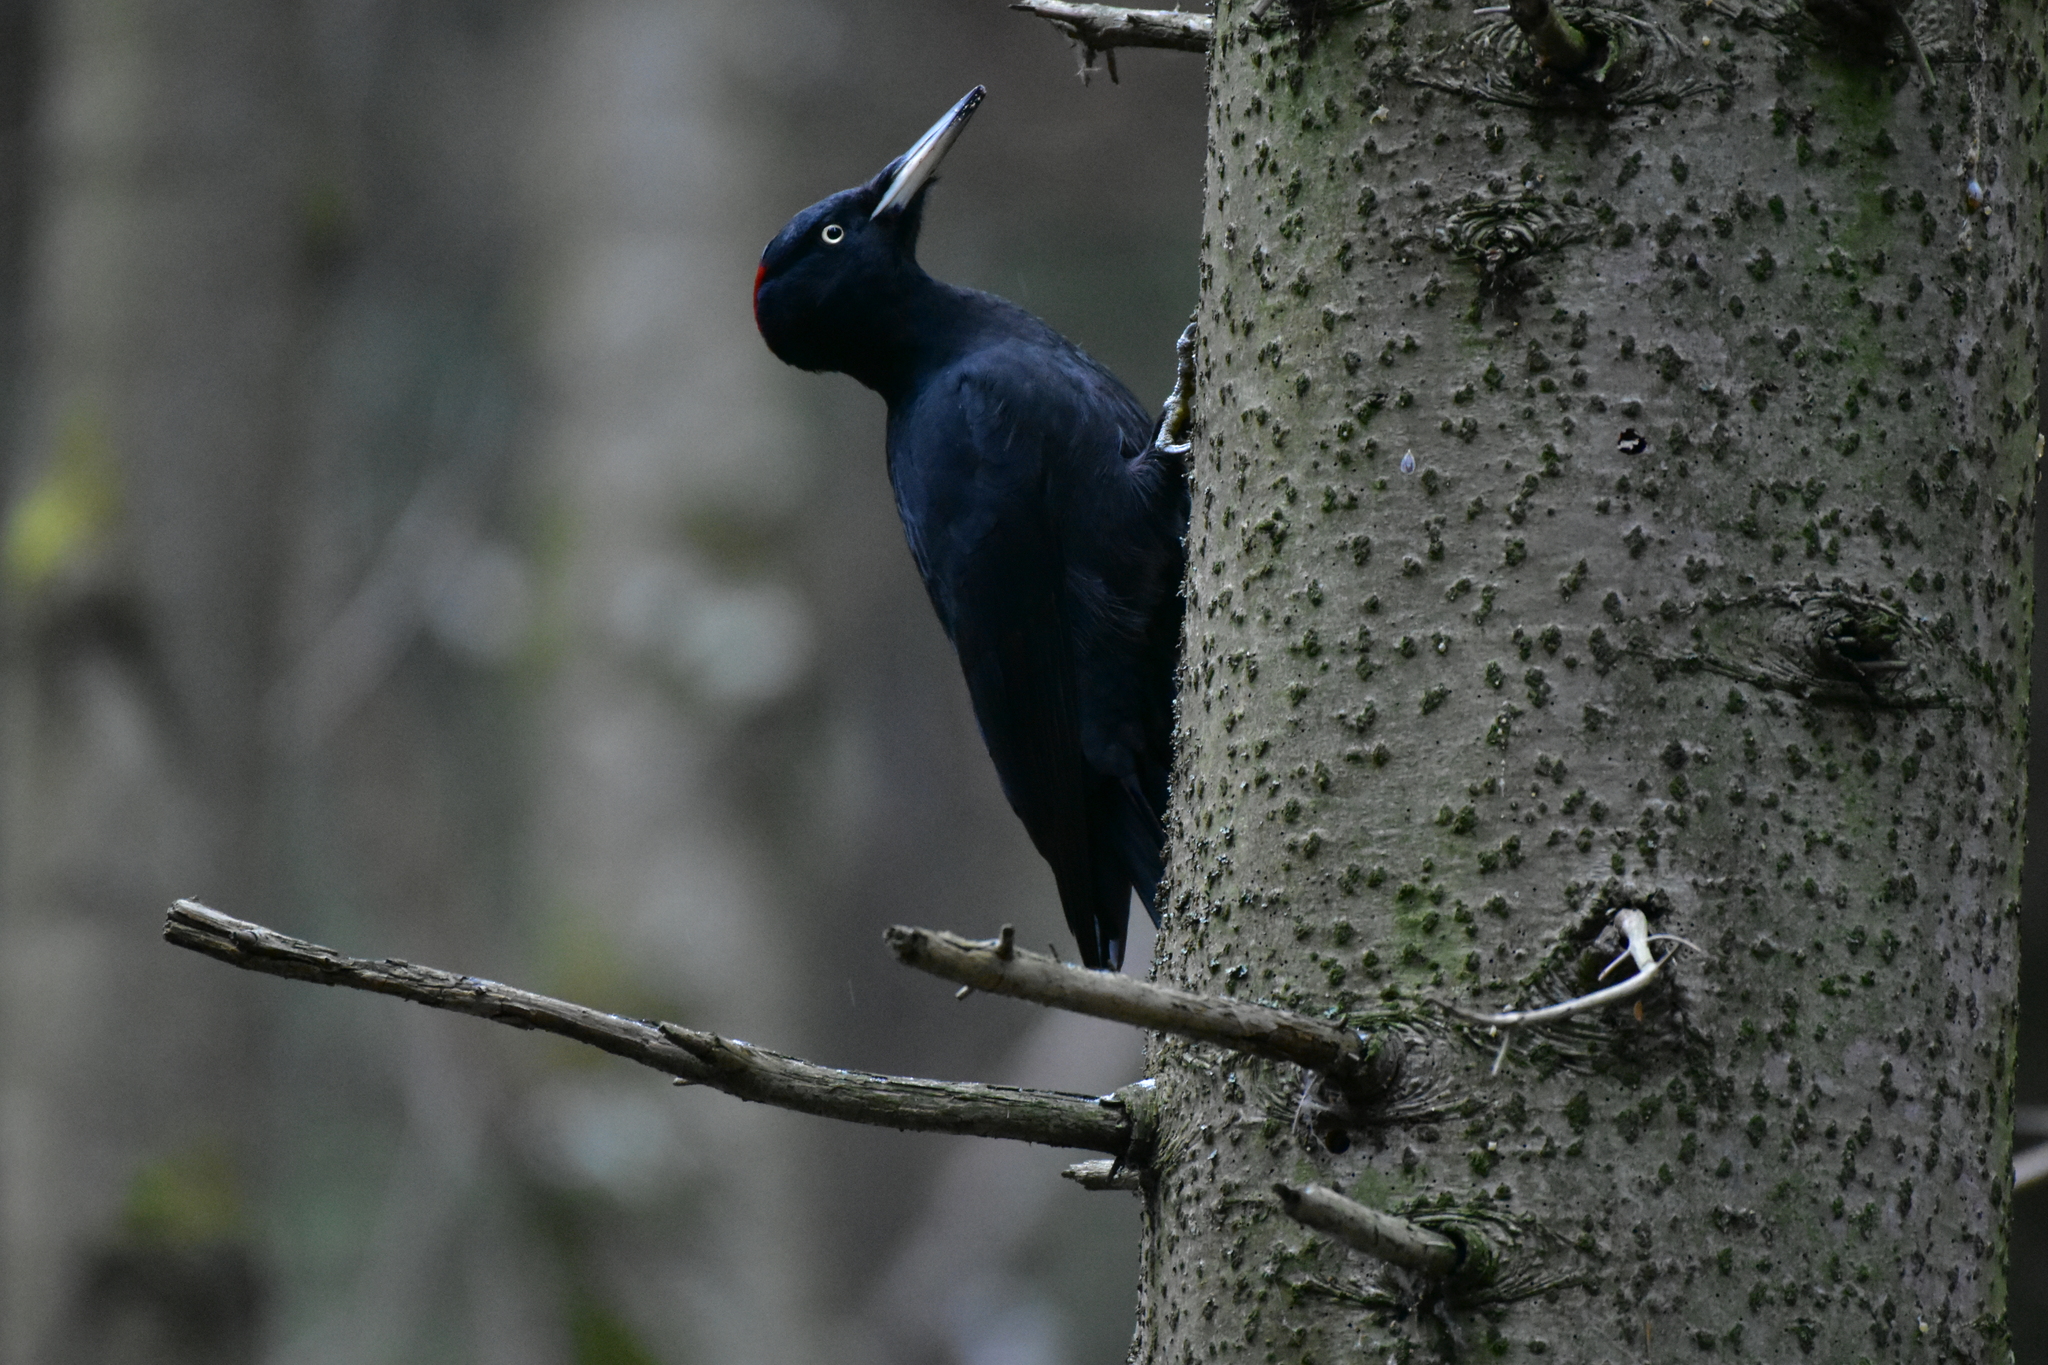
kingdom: Animalia
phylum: Chordata
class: Aves
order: Piciformes
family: Picidae
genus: Dryocopus
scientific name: Dryocopus martius
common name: Black woodpecker
